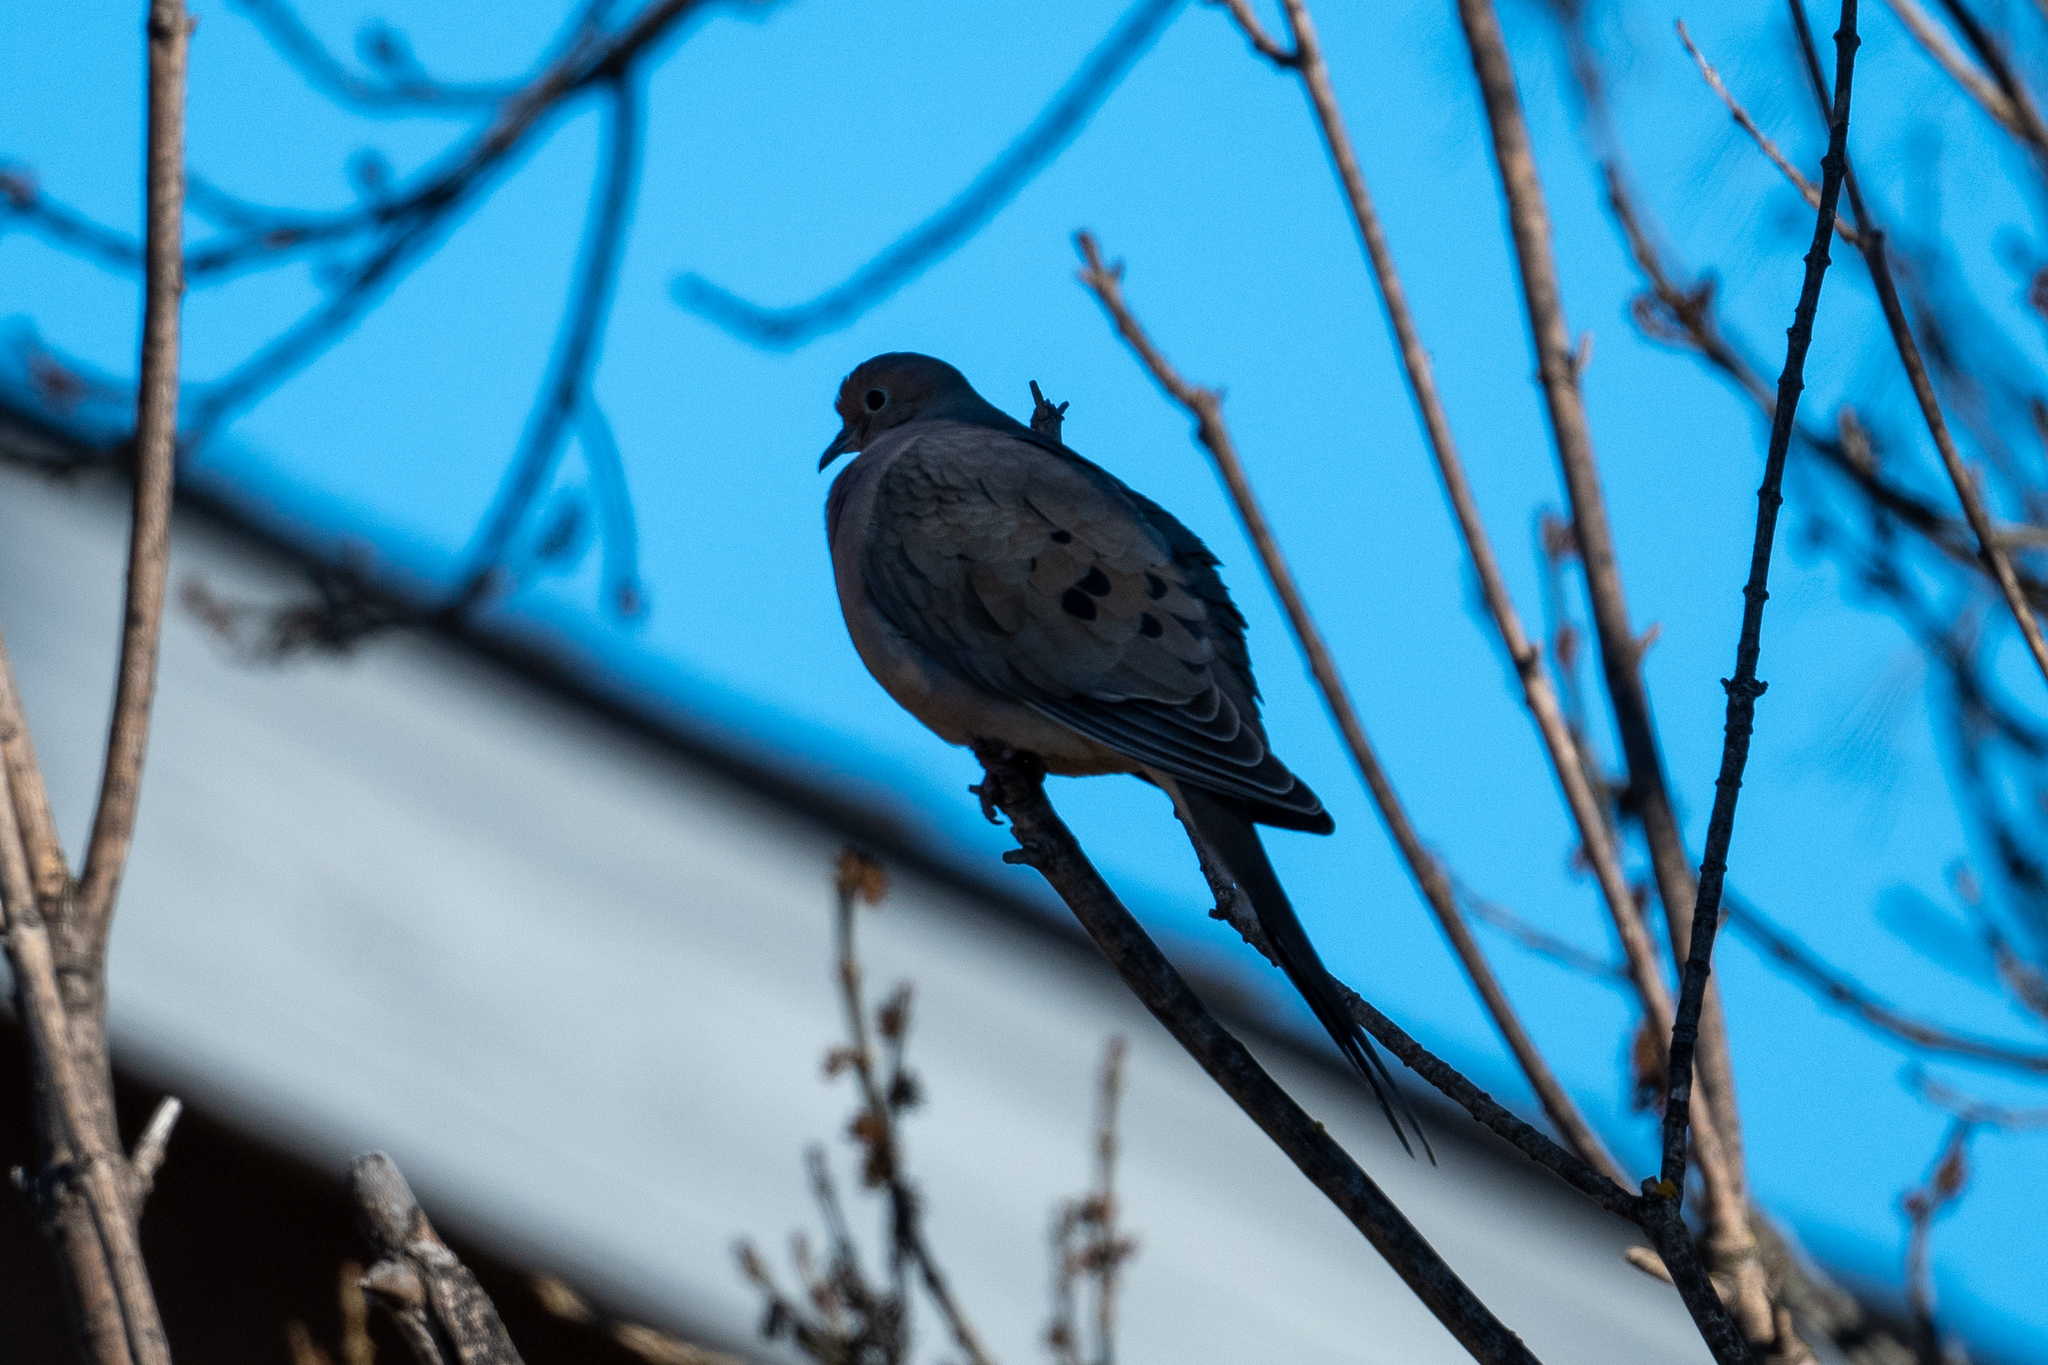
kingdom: Animalia
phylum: Chordata
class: Aves
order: Columbiformes
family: Columbidae
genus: Zenaida
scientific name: Zenaida macroura
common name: Mourning dove
